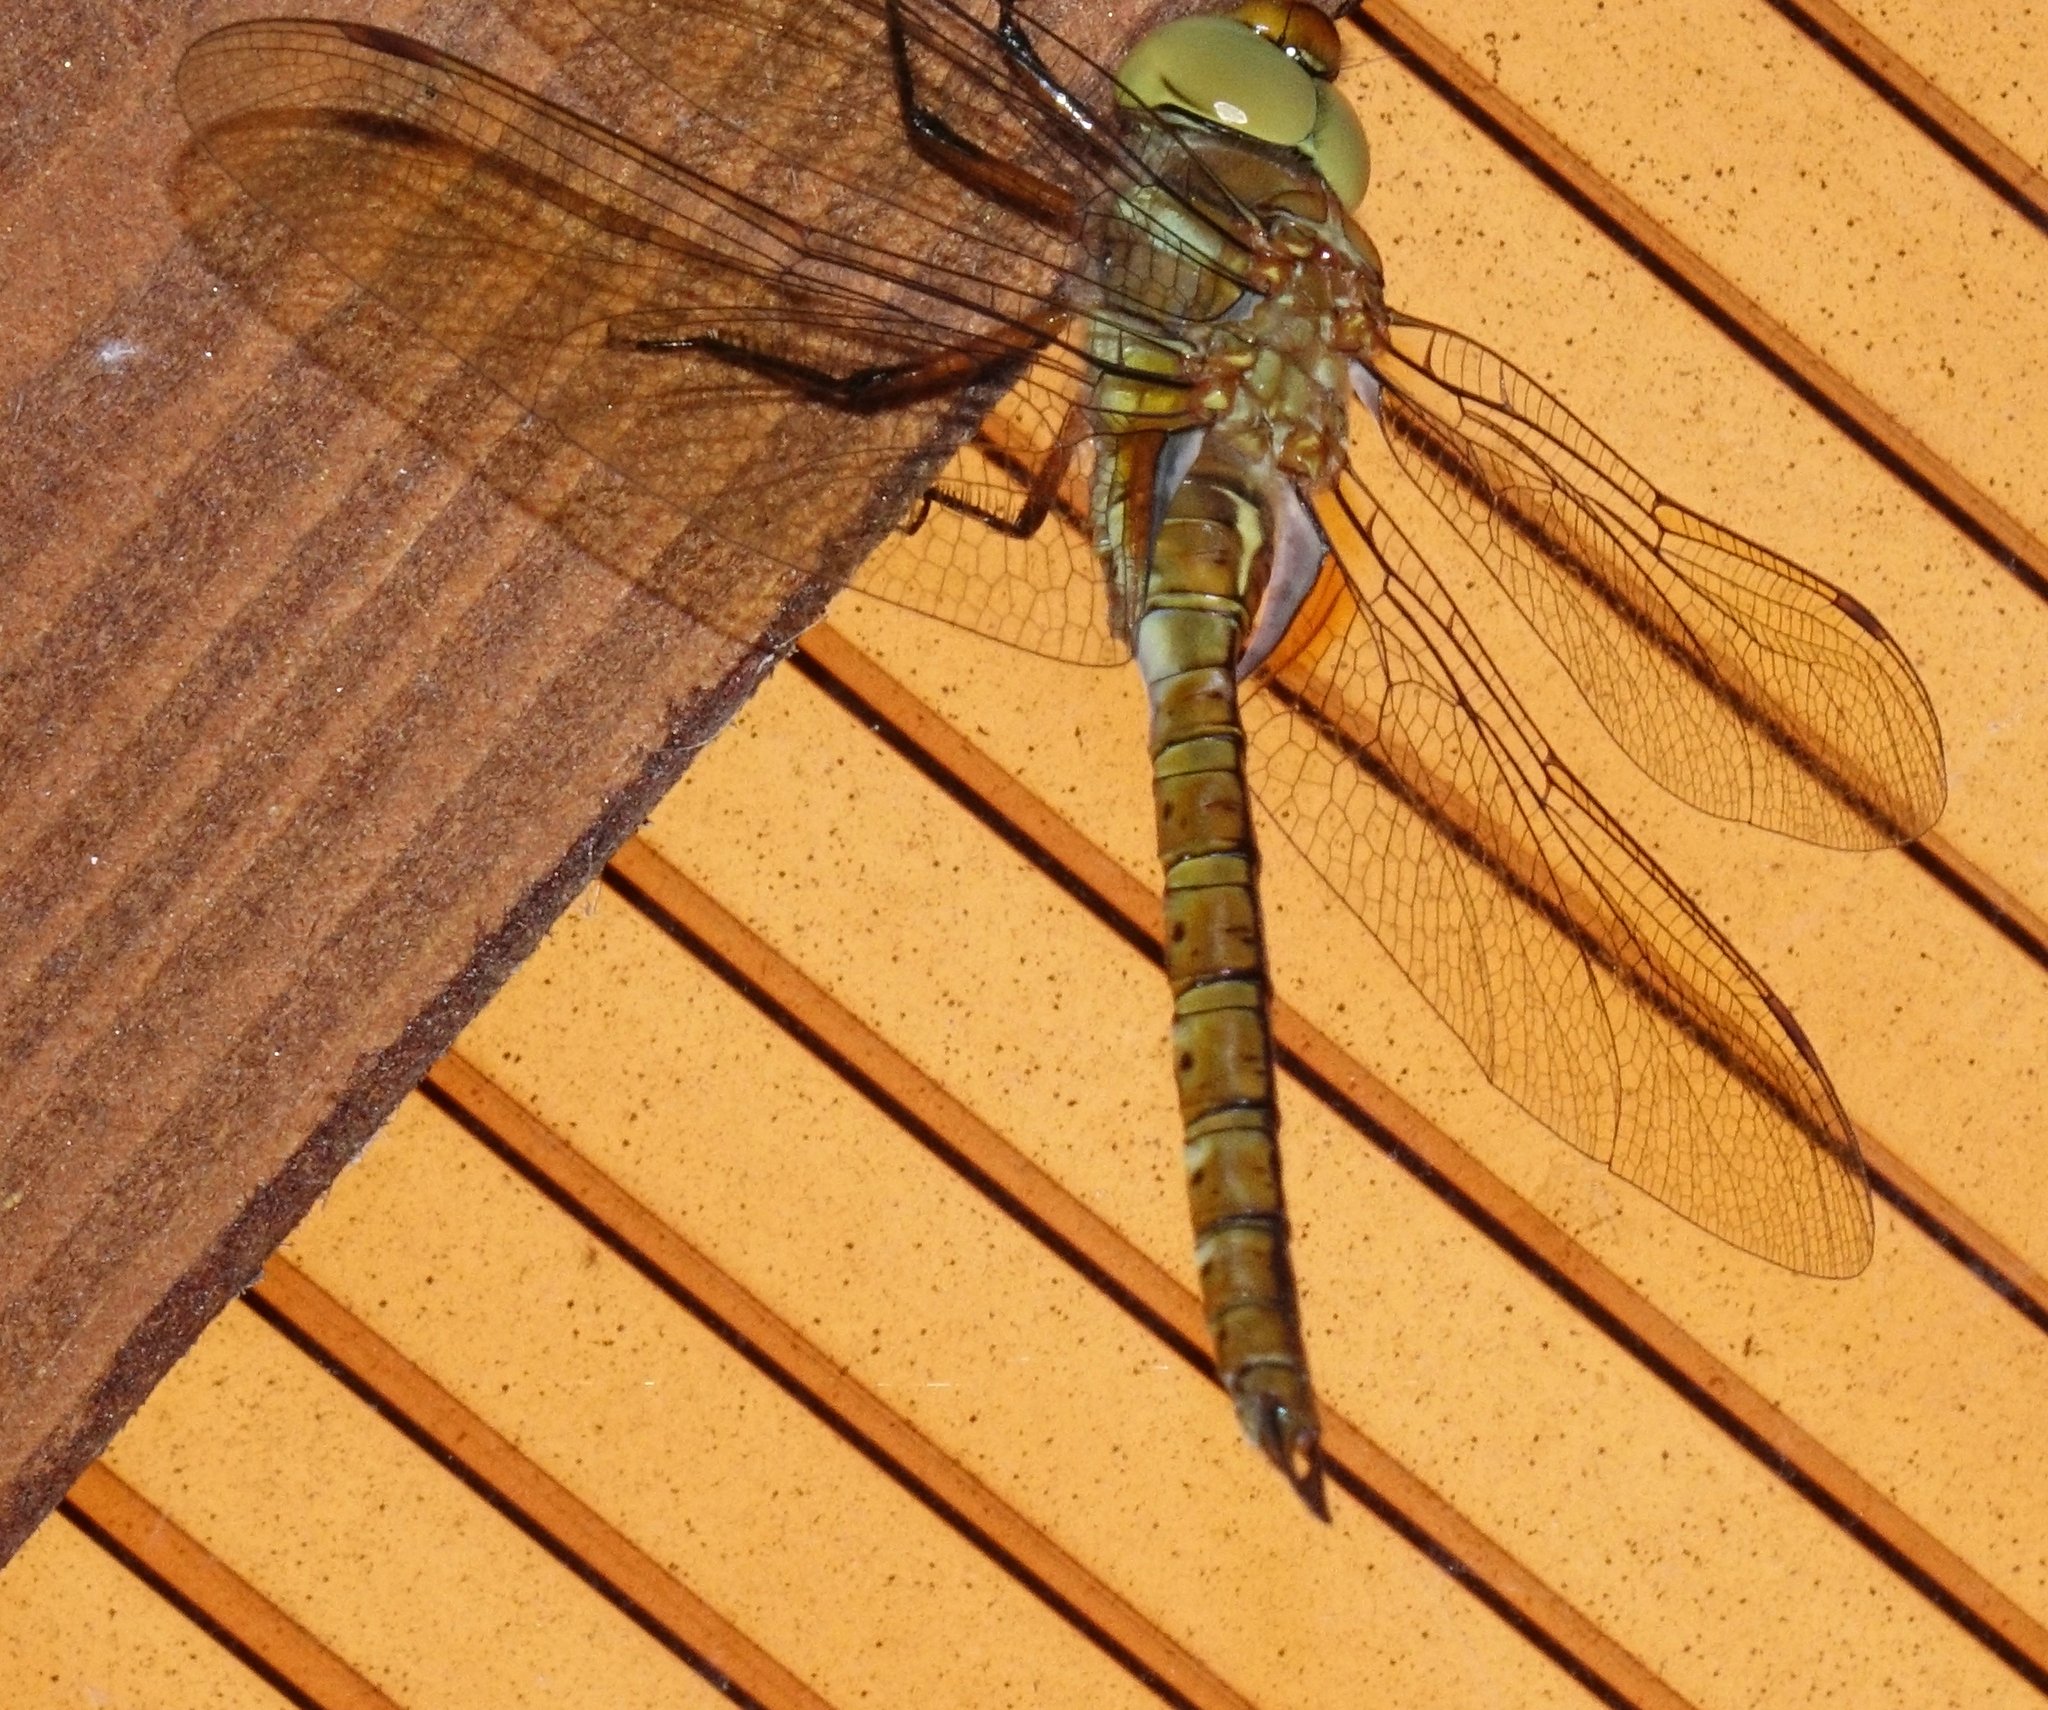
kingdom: Animalia
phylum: Arthropoda
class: Insecta
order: Odonata
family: Aeshnidae
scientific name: Aeshnidae
